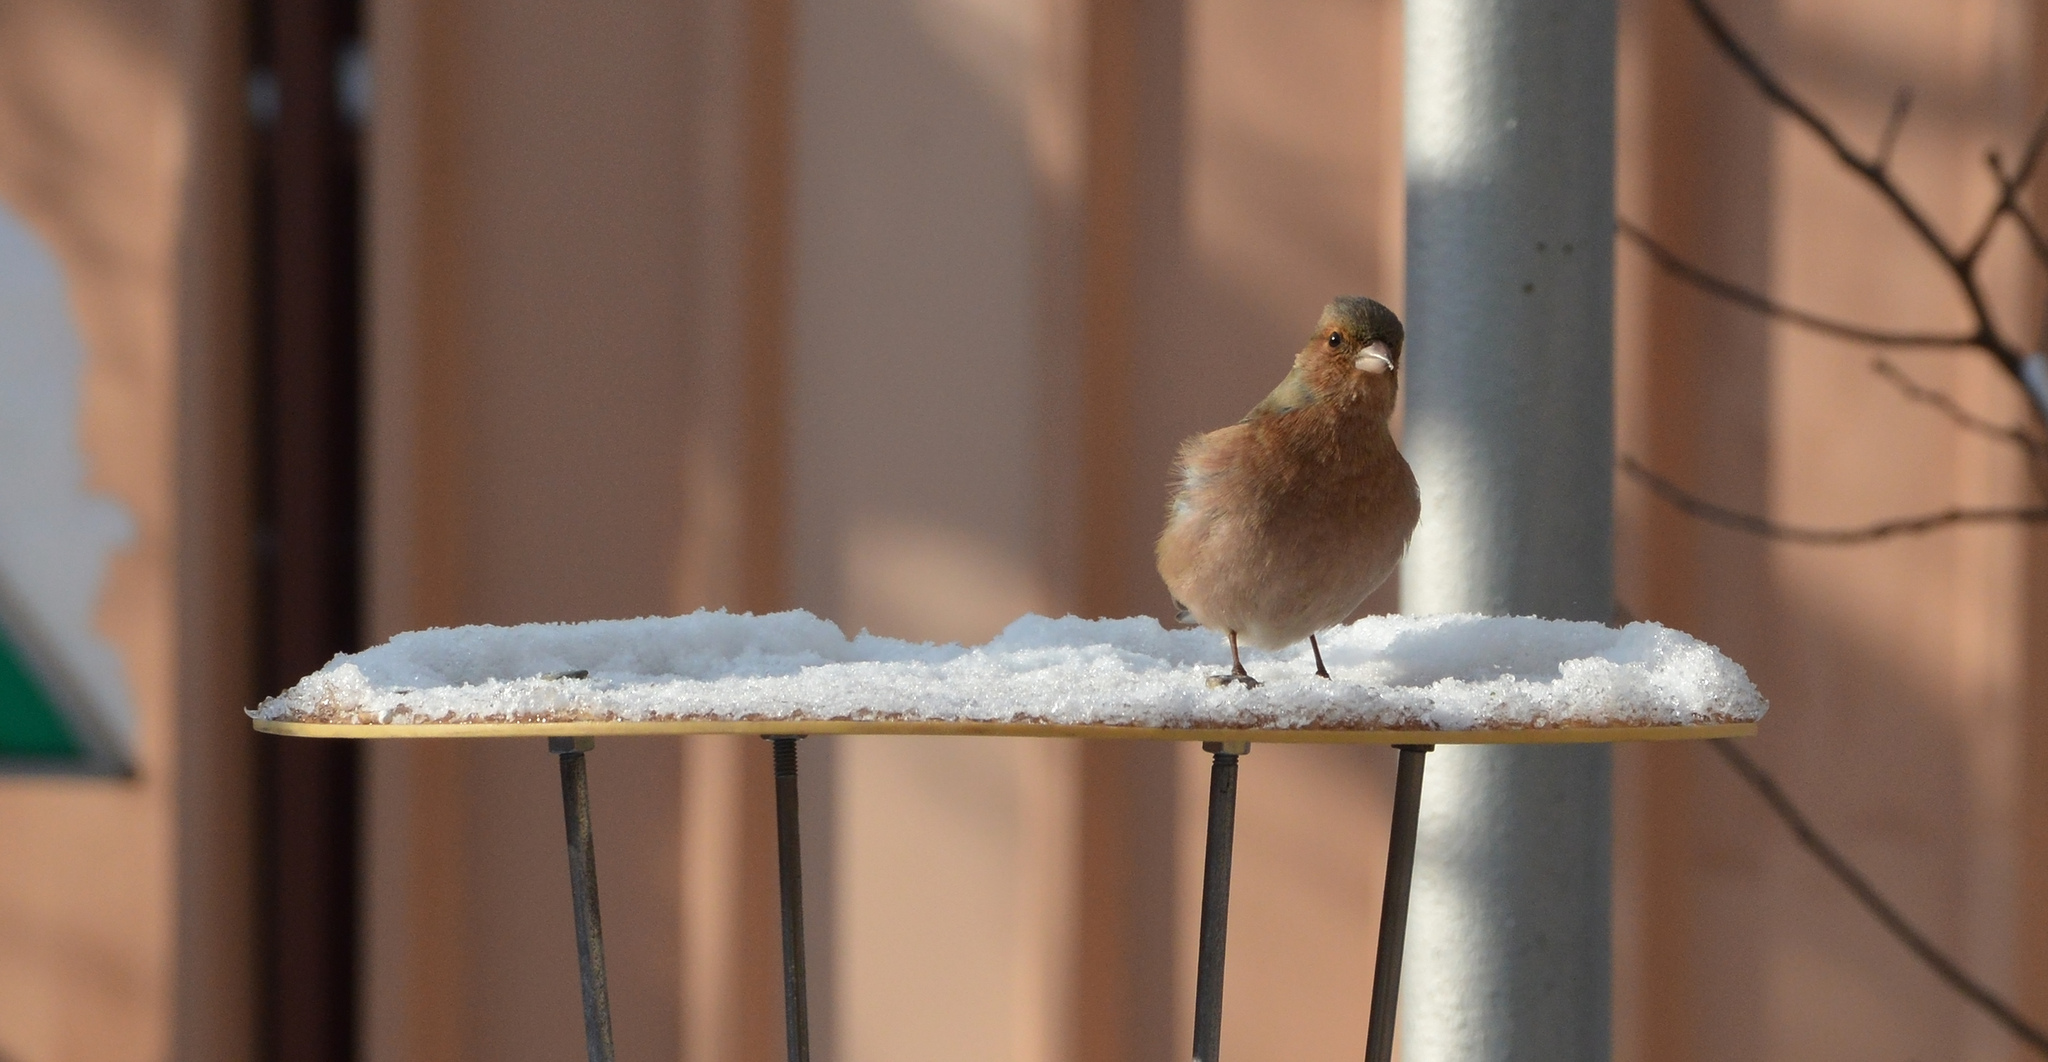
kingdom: Animalia
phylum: Chordata
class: Aves
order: Passeriformes
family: Fringillidae
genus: Fringilla
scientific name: Fringilla coelebs
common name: Common chaffinch
